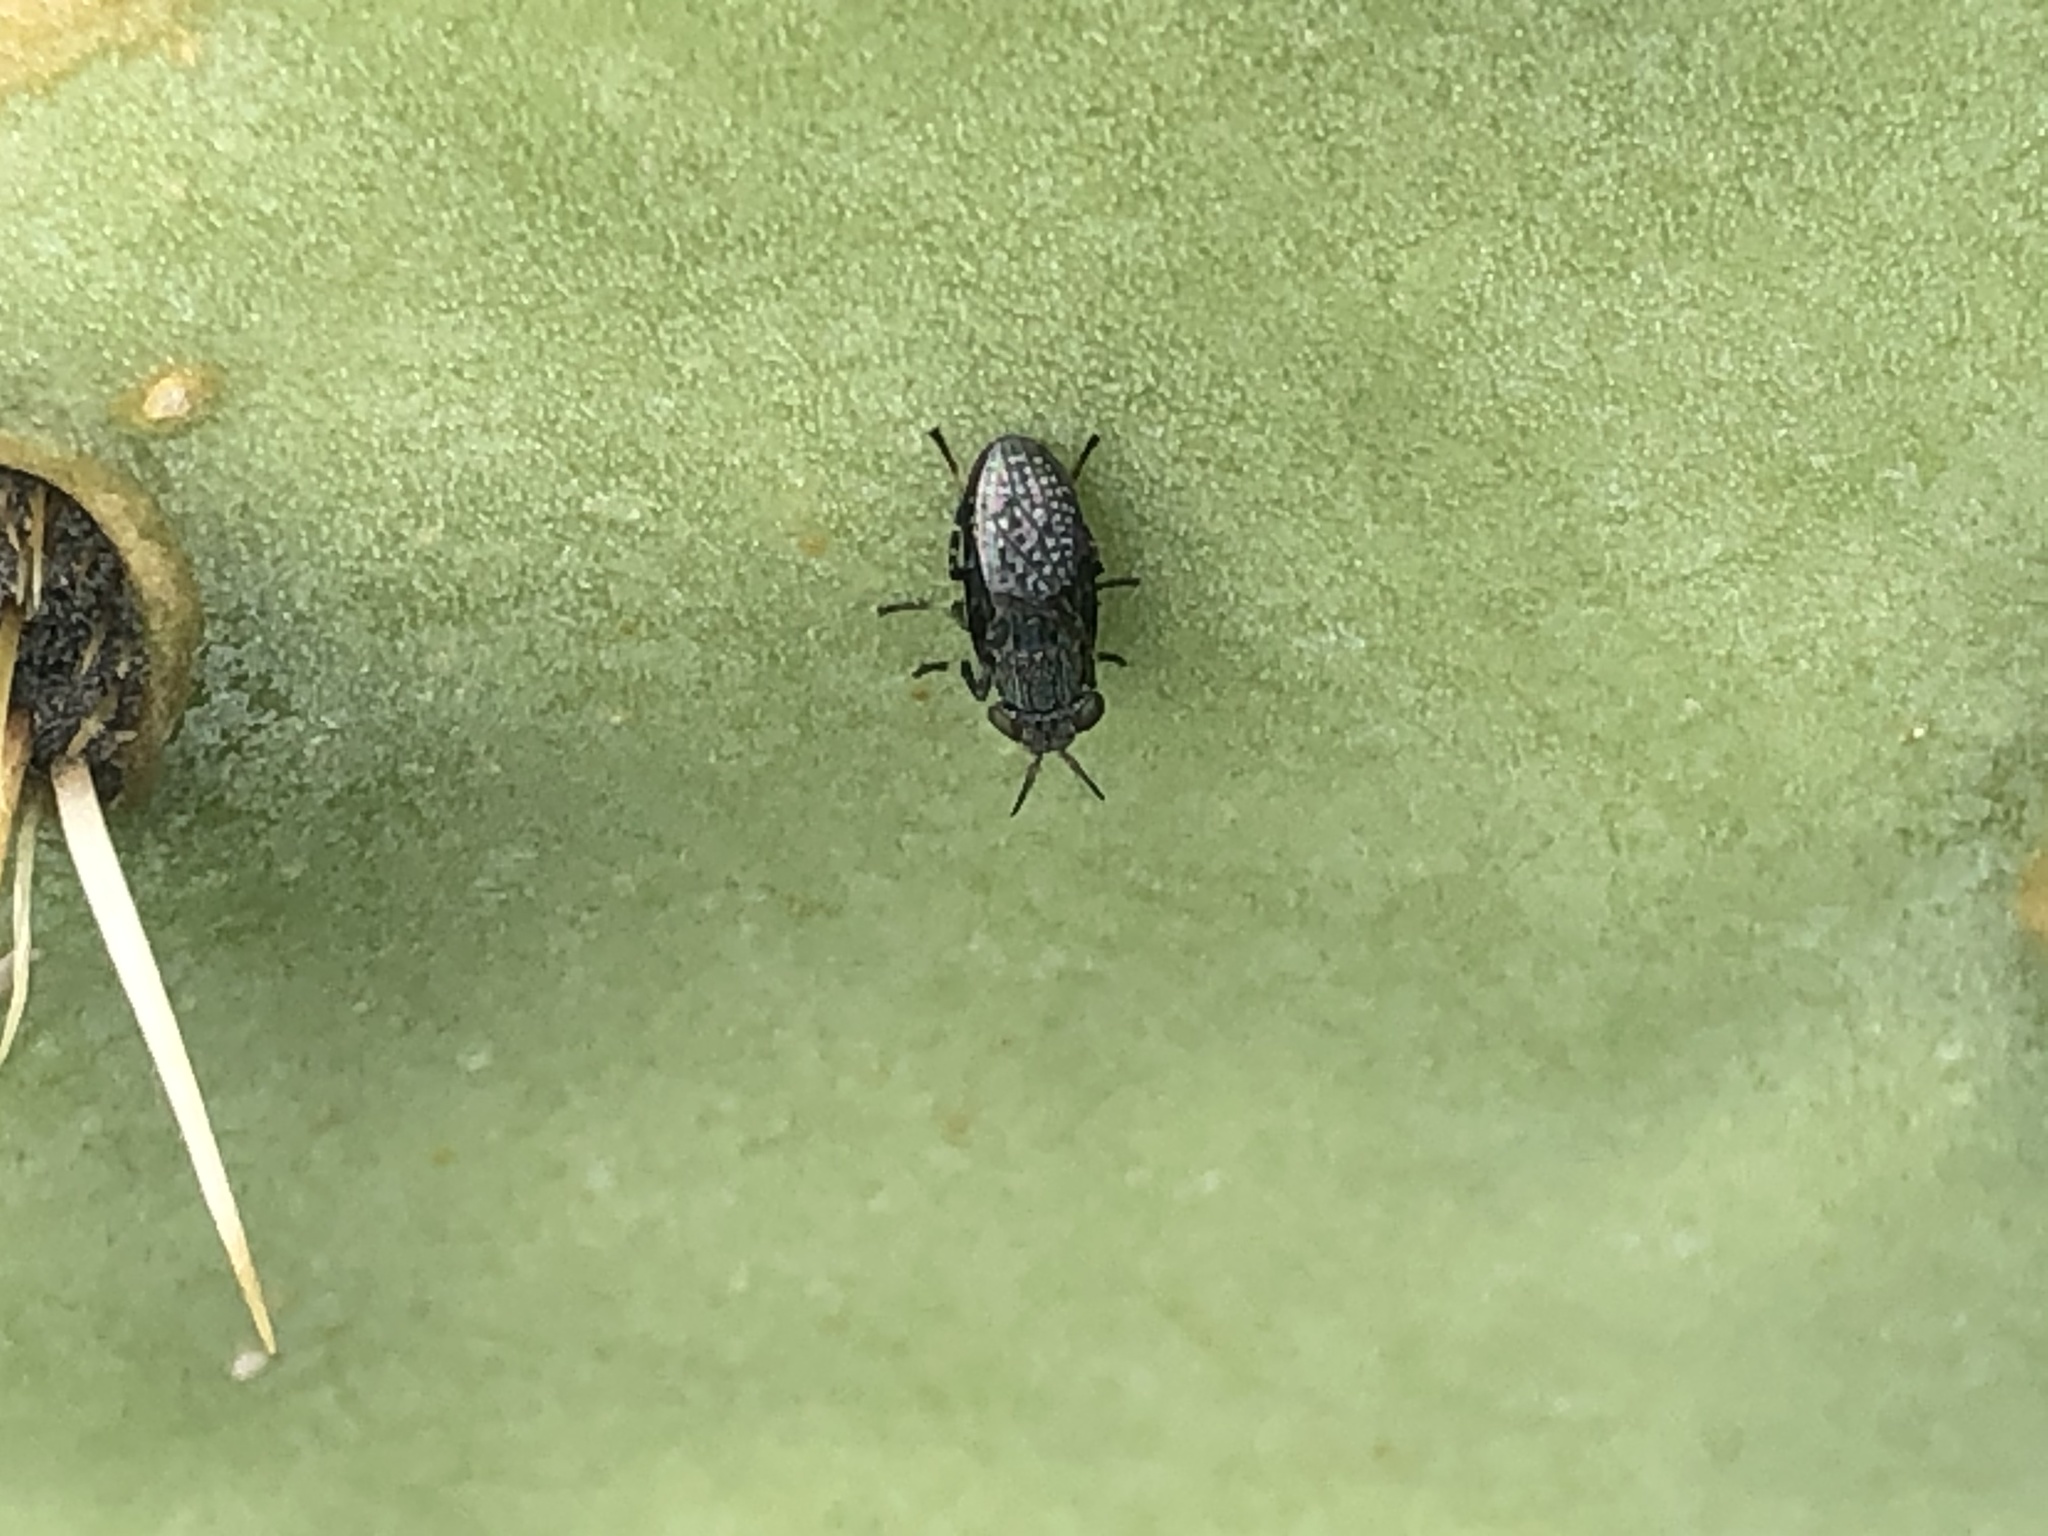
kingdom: Animalia
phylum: Arthropoda
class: Insecta
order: Diptera
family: Ulidiidae
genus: Stictomyia
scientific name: Stictomyia longicornis
